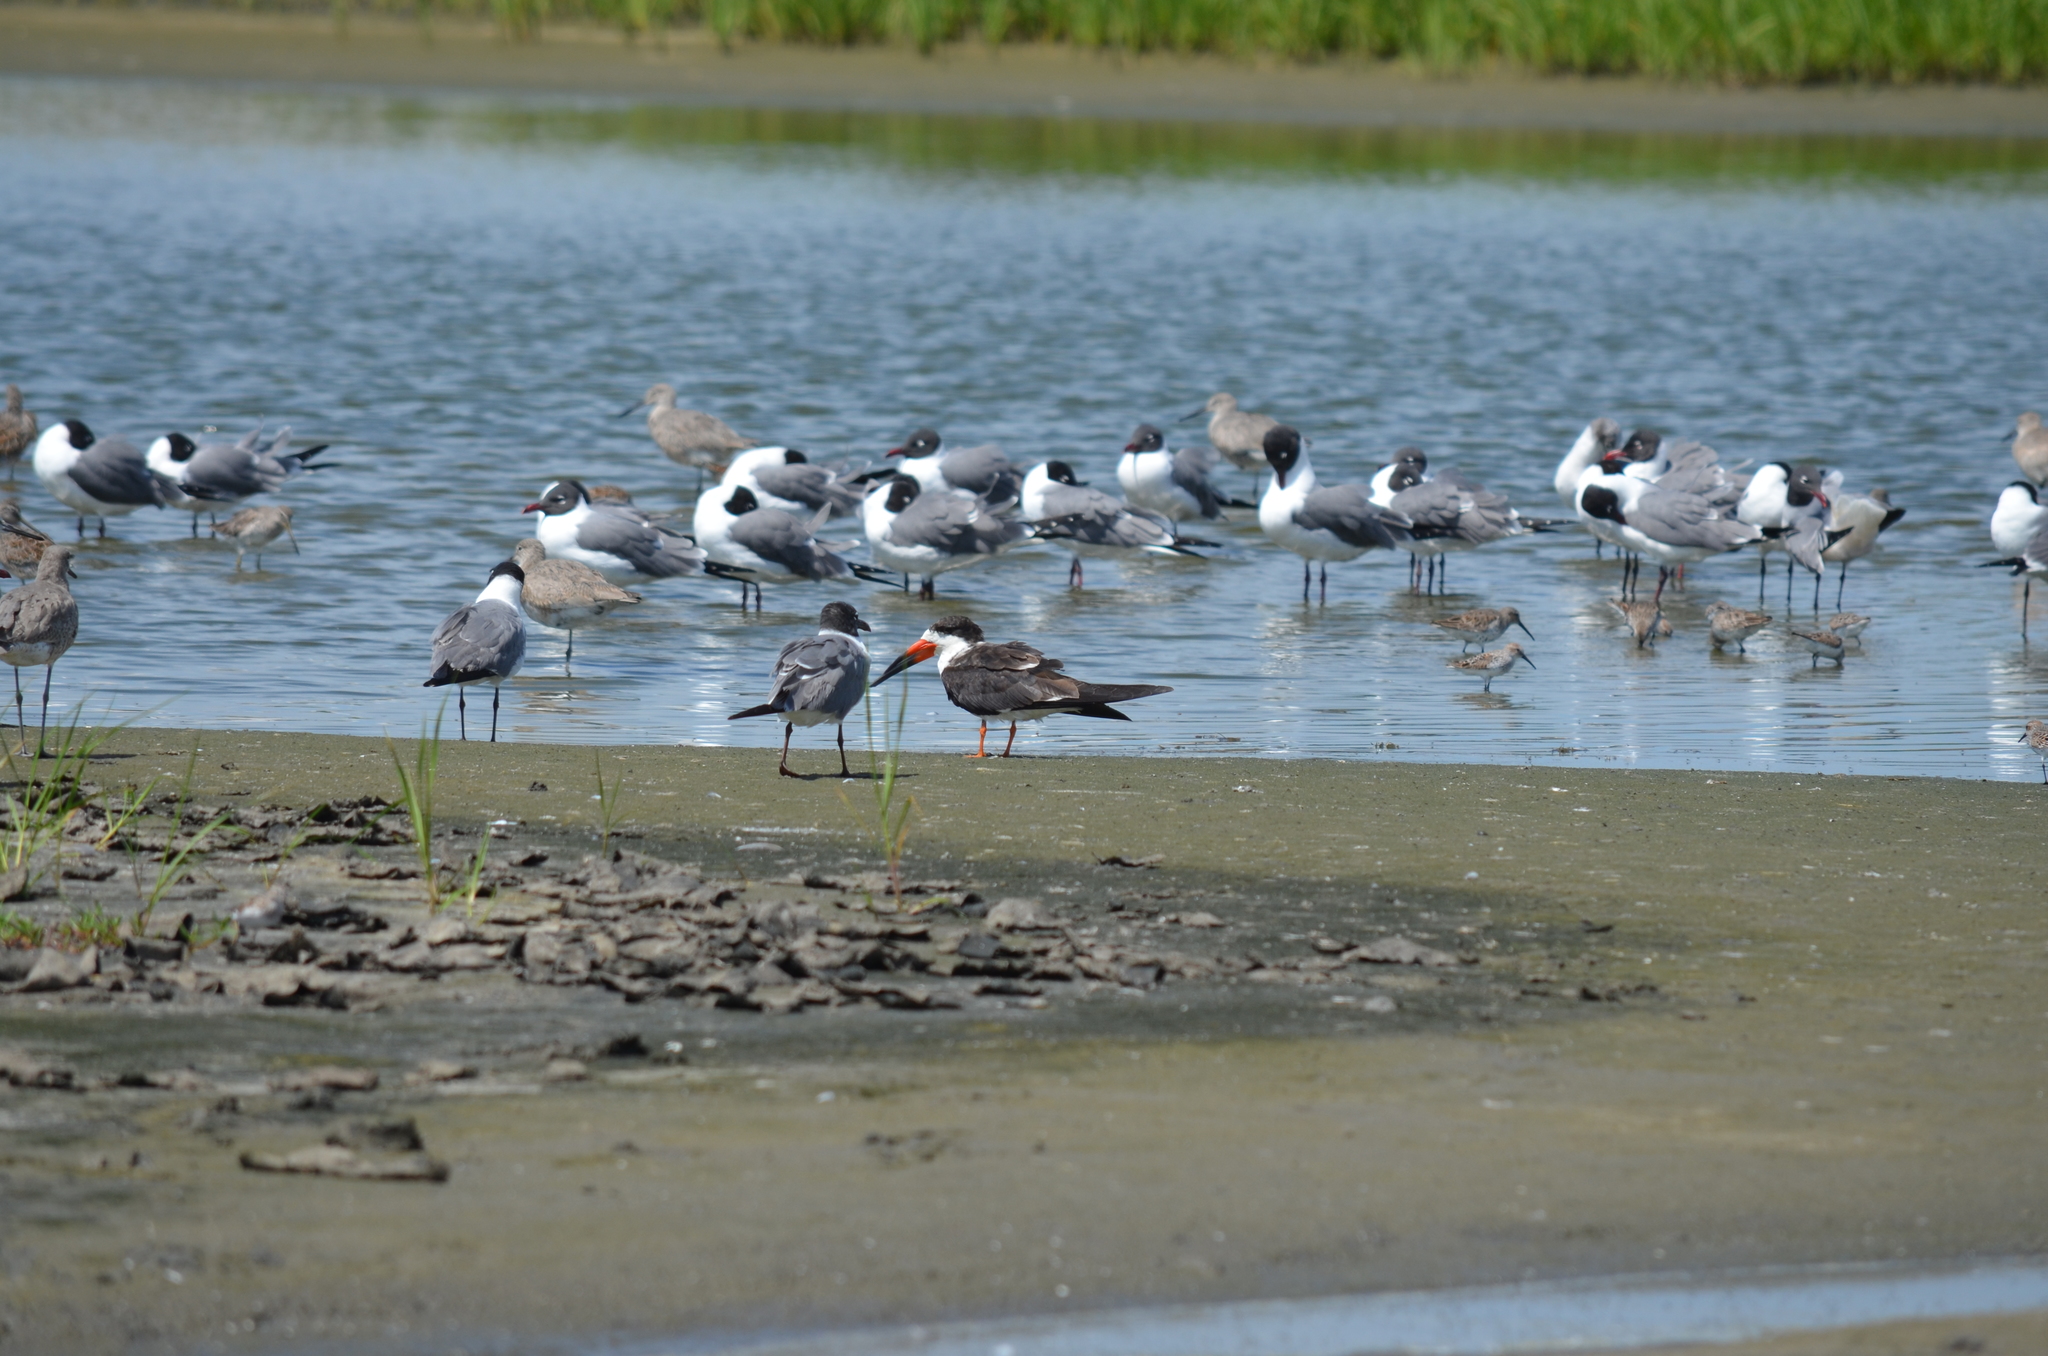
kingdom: Animalia
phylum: Chordata
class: Aves
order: Charadriiformes
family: Laridae
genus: Rynchops
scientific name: Rynchops niger
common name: Black skimmer
